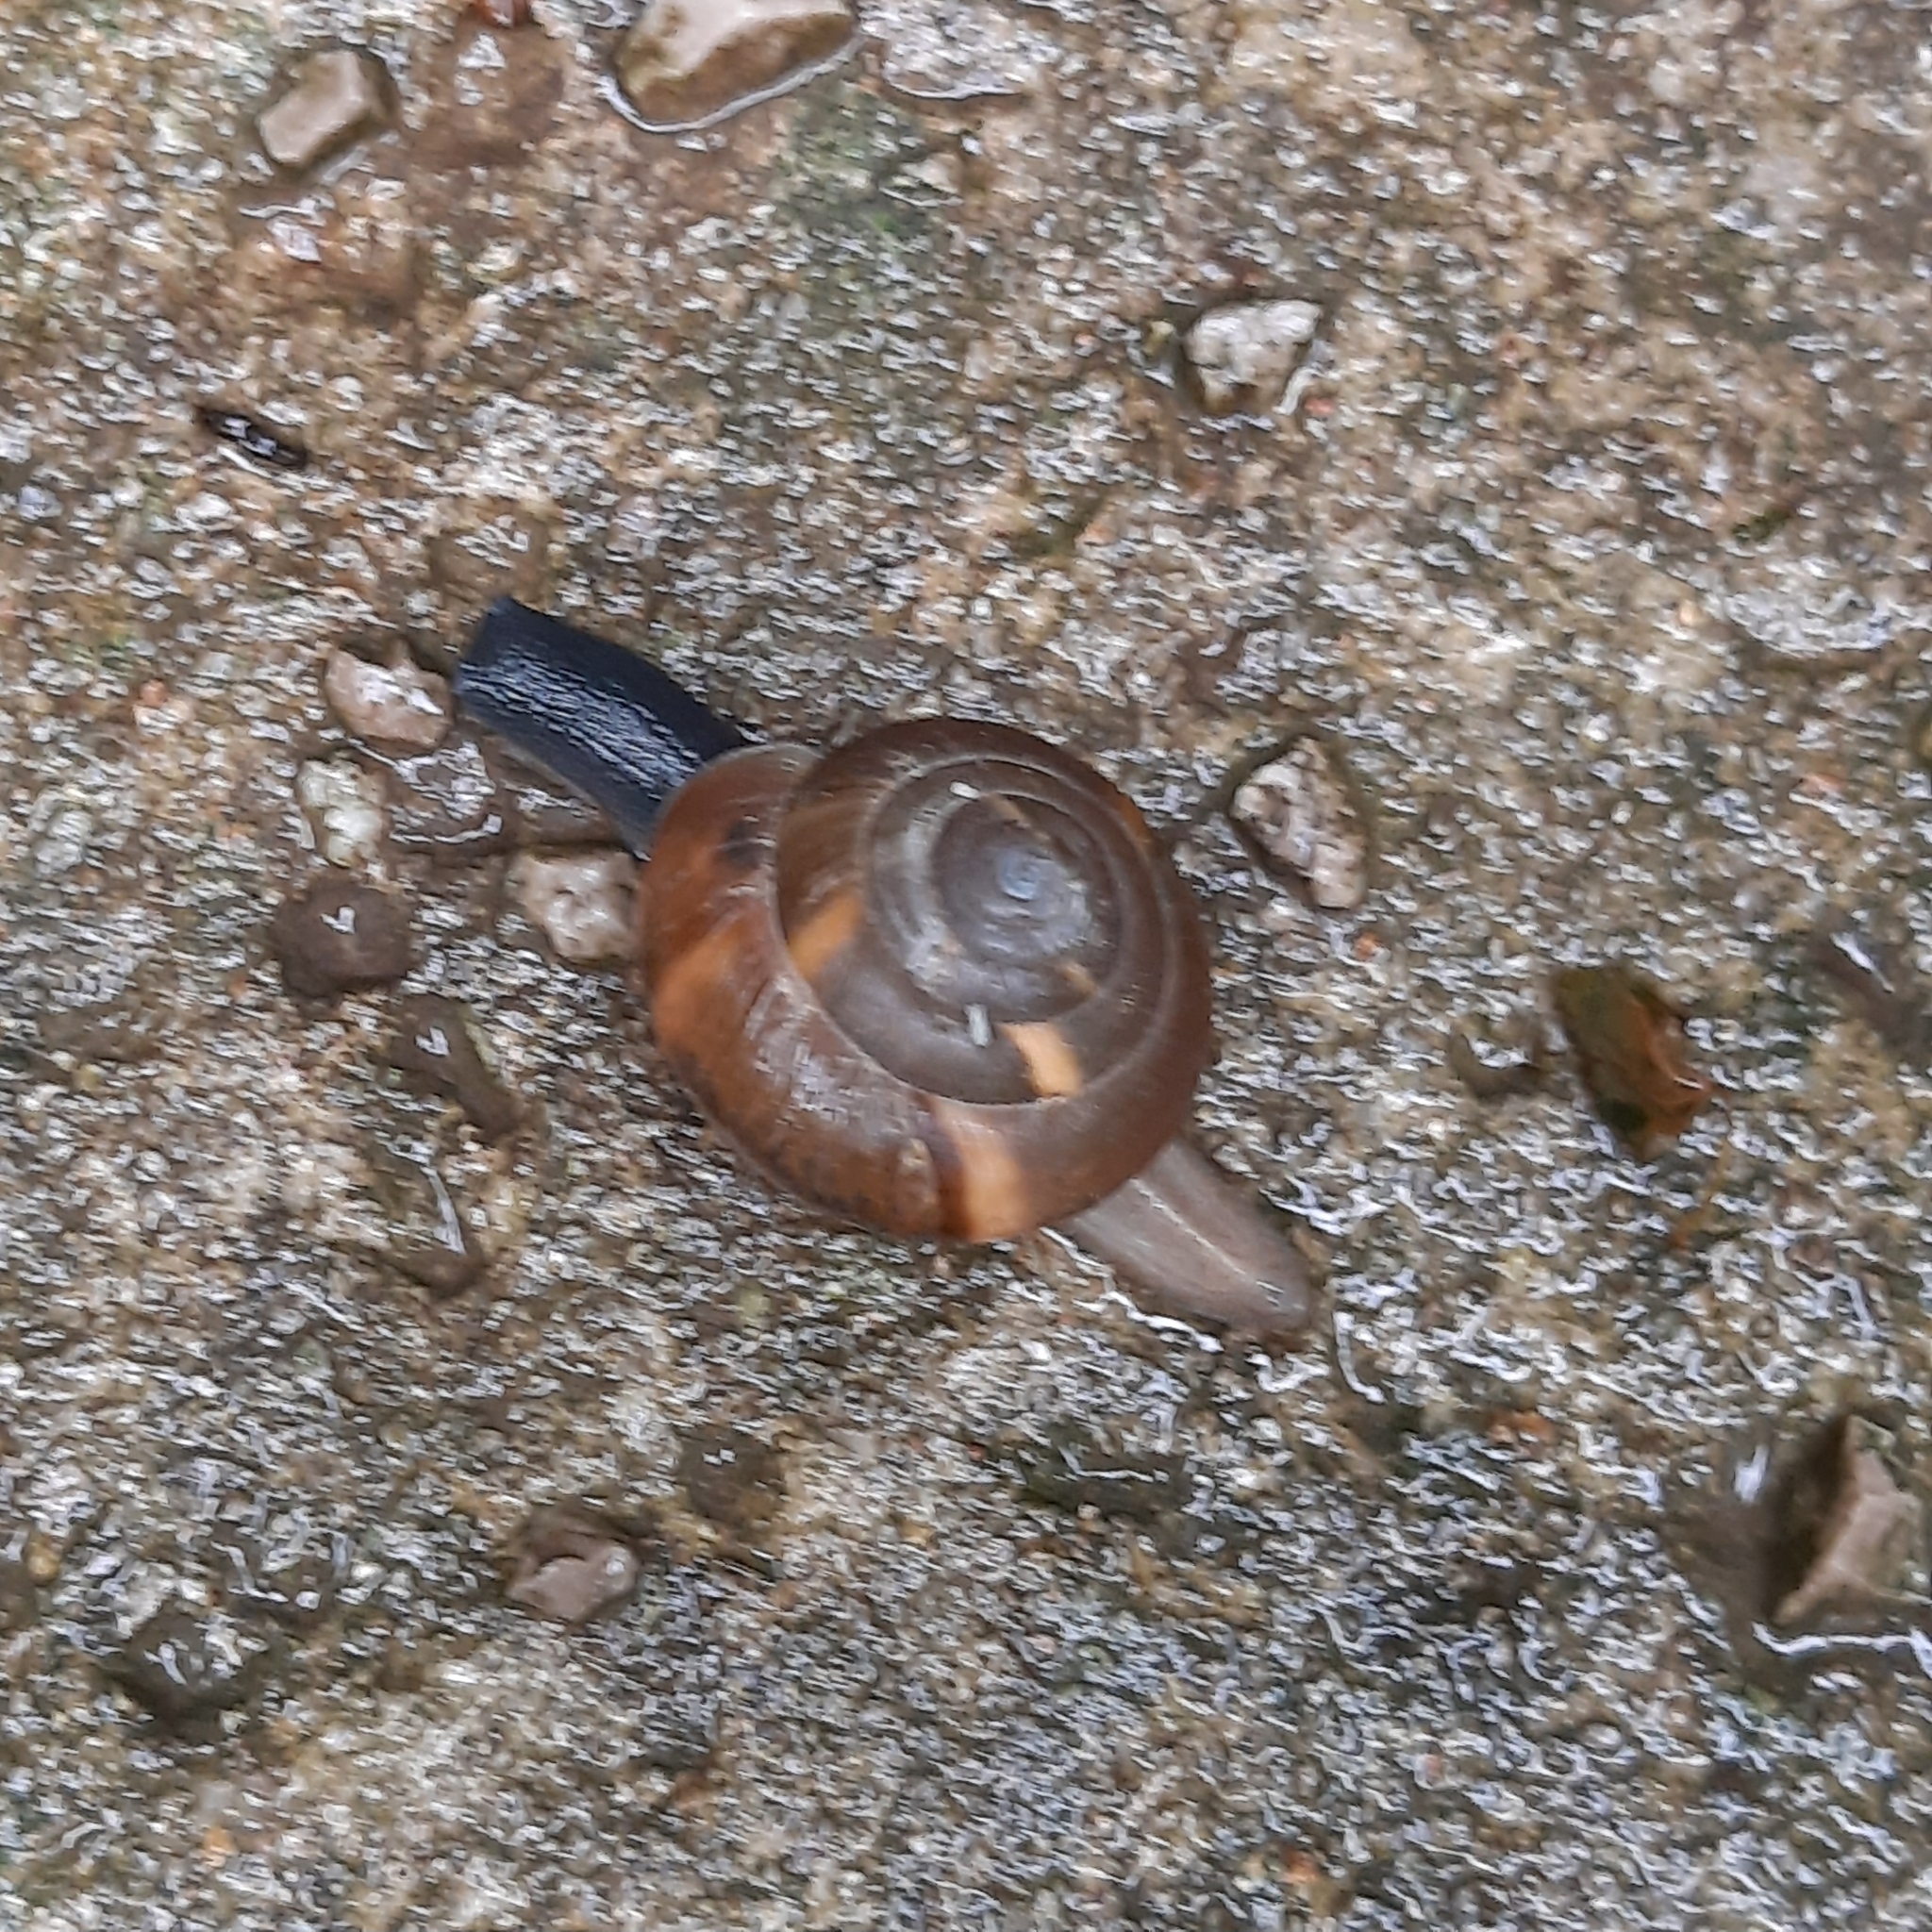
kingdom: Animalia
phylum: Mollusca
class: Gastropoda
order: Stylommatophora
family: Zonitidae
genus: Aegopis
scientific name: Aegopis verticillus
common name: Giant glass snail
